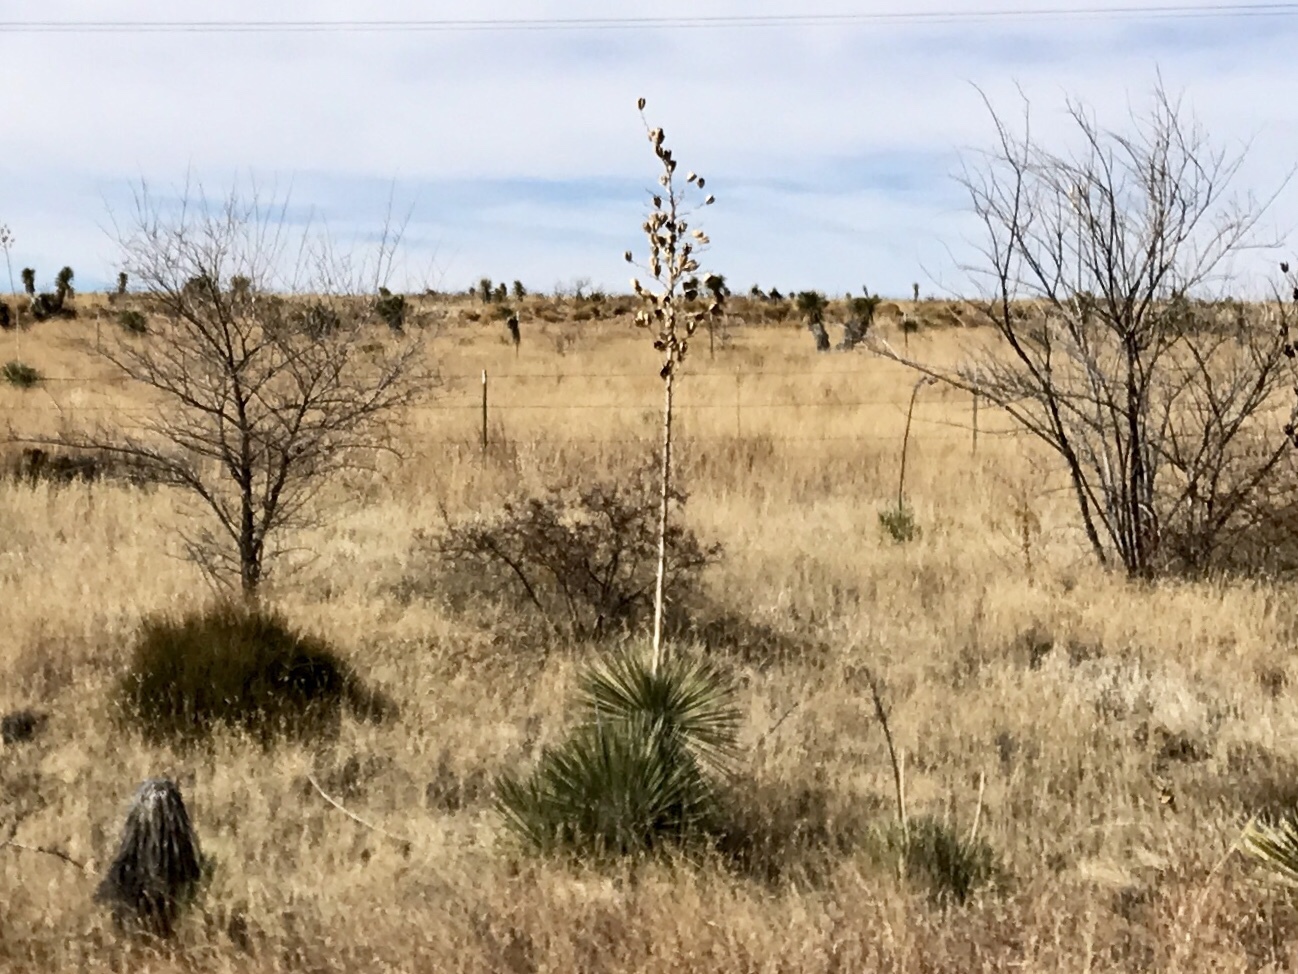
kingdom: Plantae
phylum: Tracheophyta
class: Liliopsida
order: Asparagales
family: Asparagaceae
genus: Yucca
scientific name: Yucca elata
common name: Palmella
